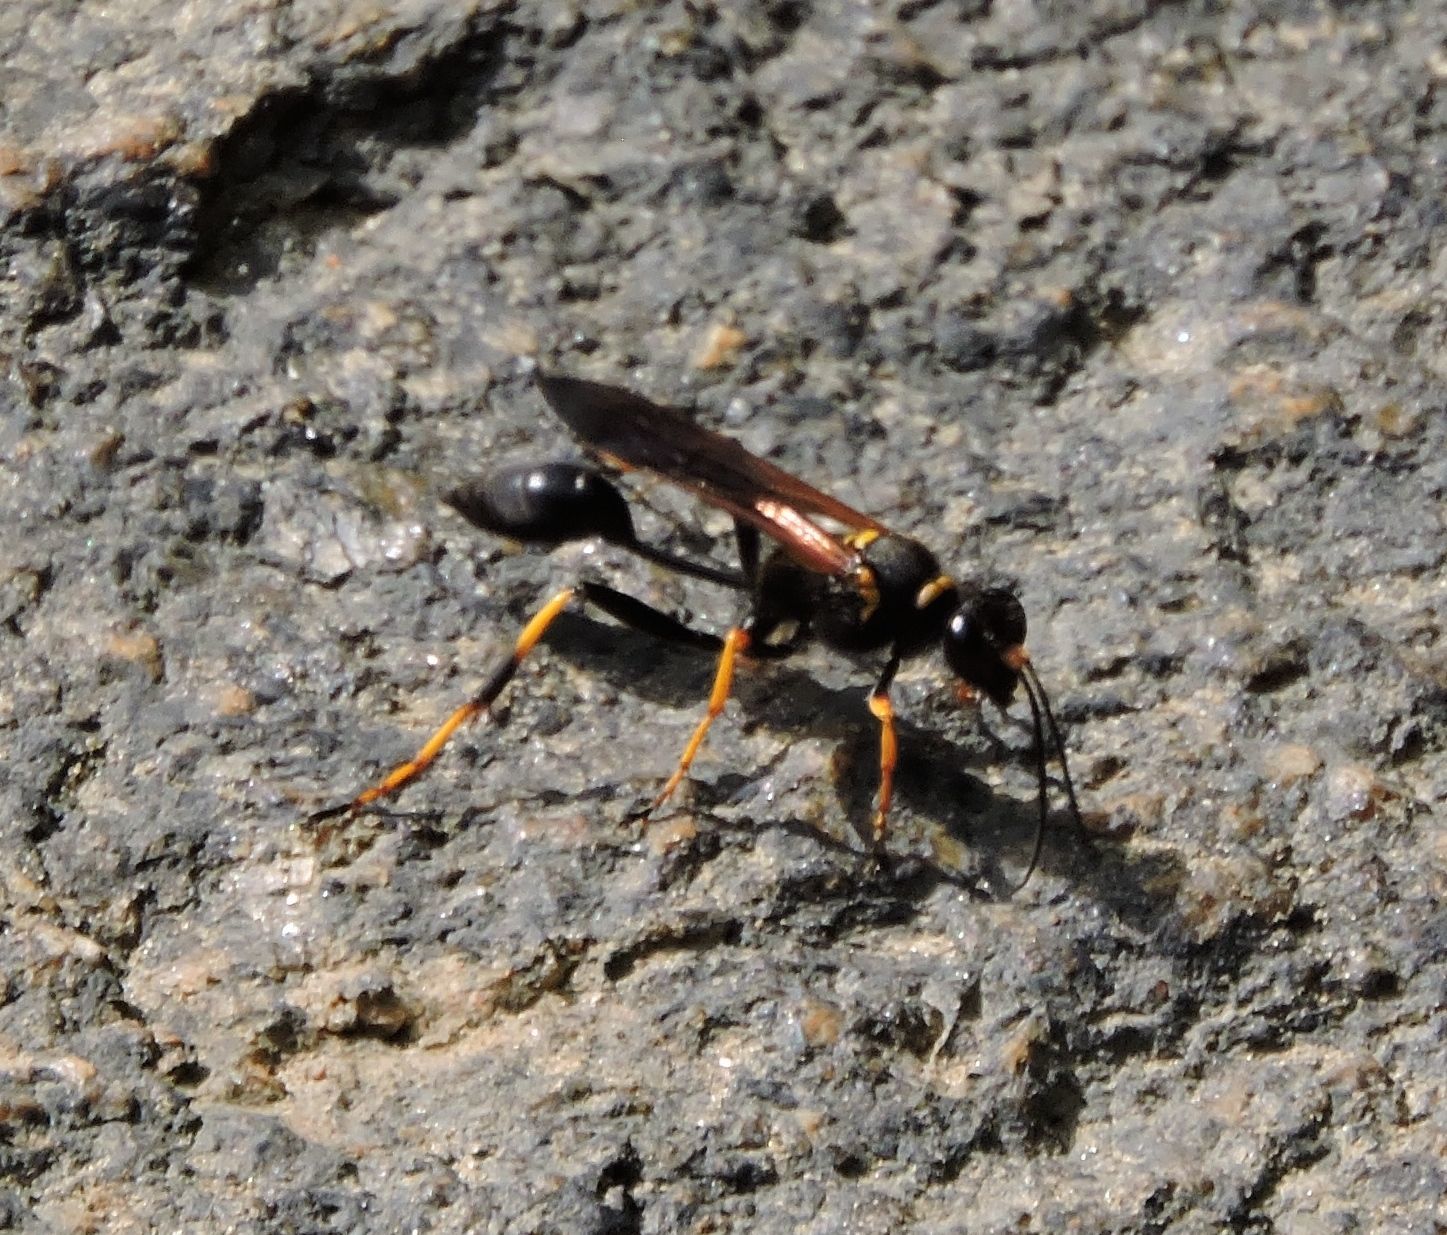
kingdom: Animalia
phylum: Arthropoda
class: Insecta
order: Hymenoptera
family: Sphecidae
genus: Sceliphron
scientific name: Sceliphron caementarium
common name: Mud dauber
